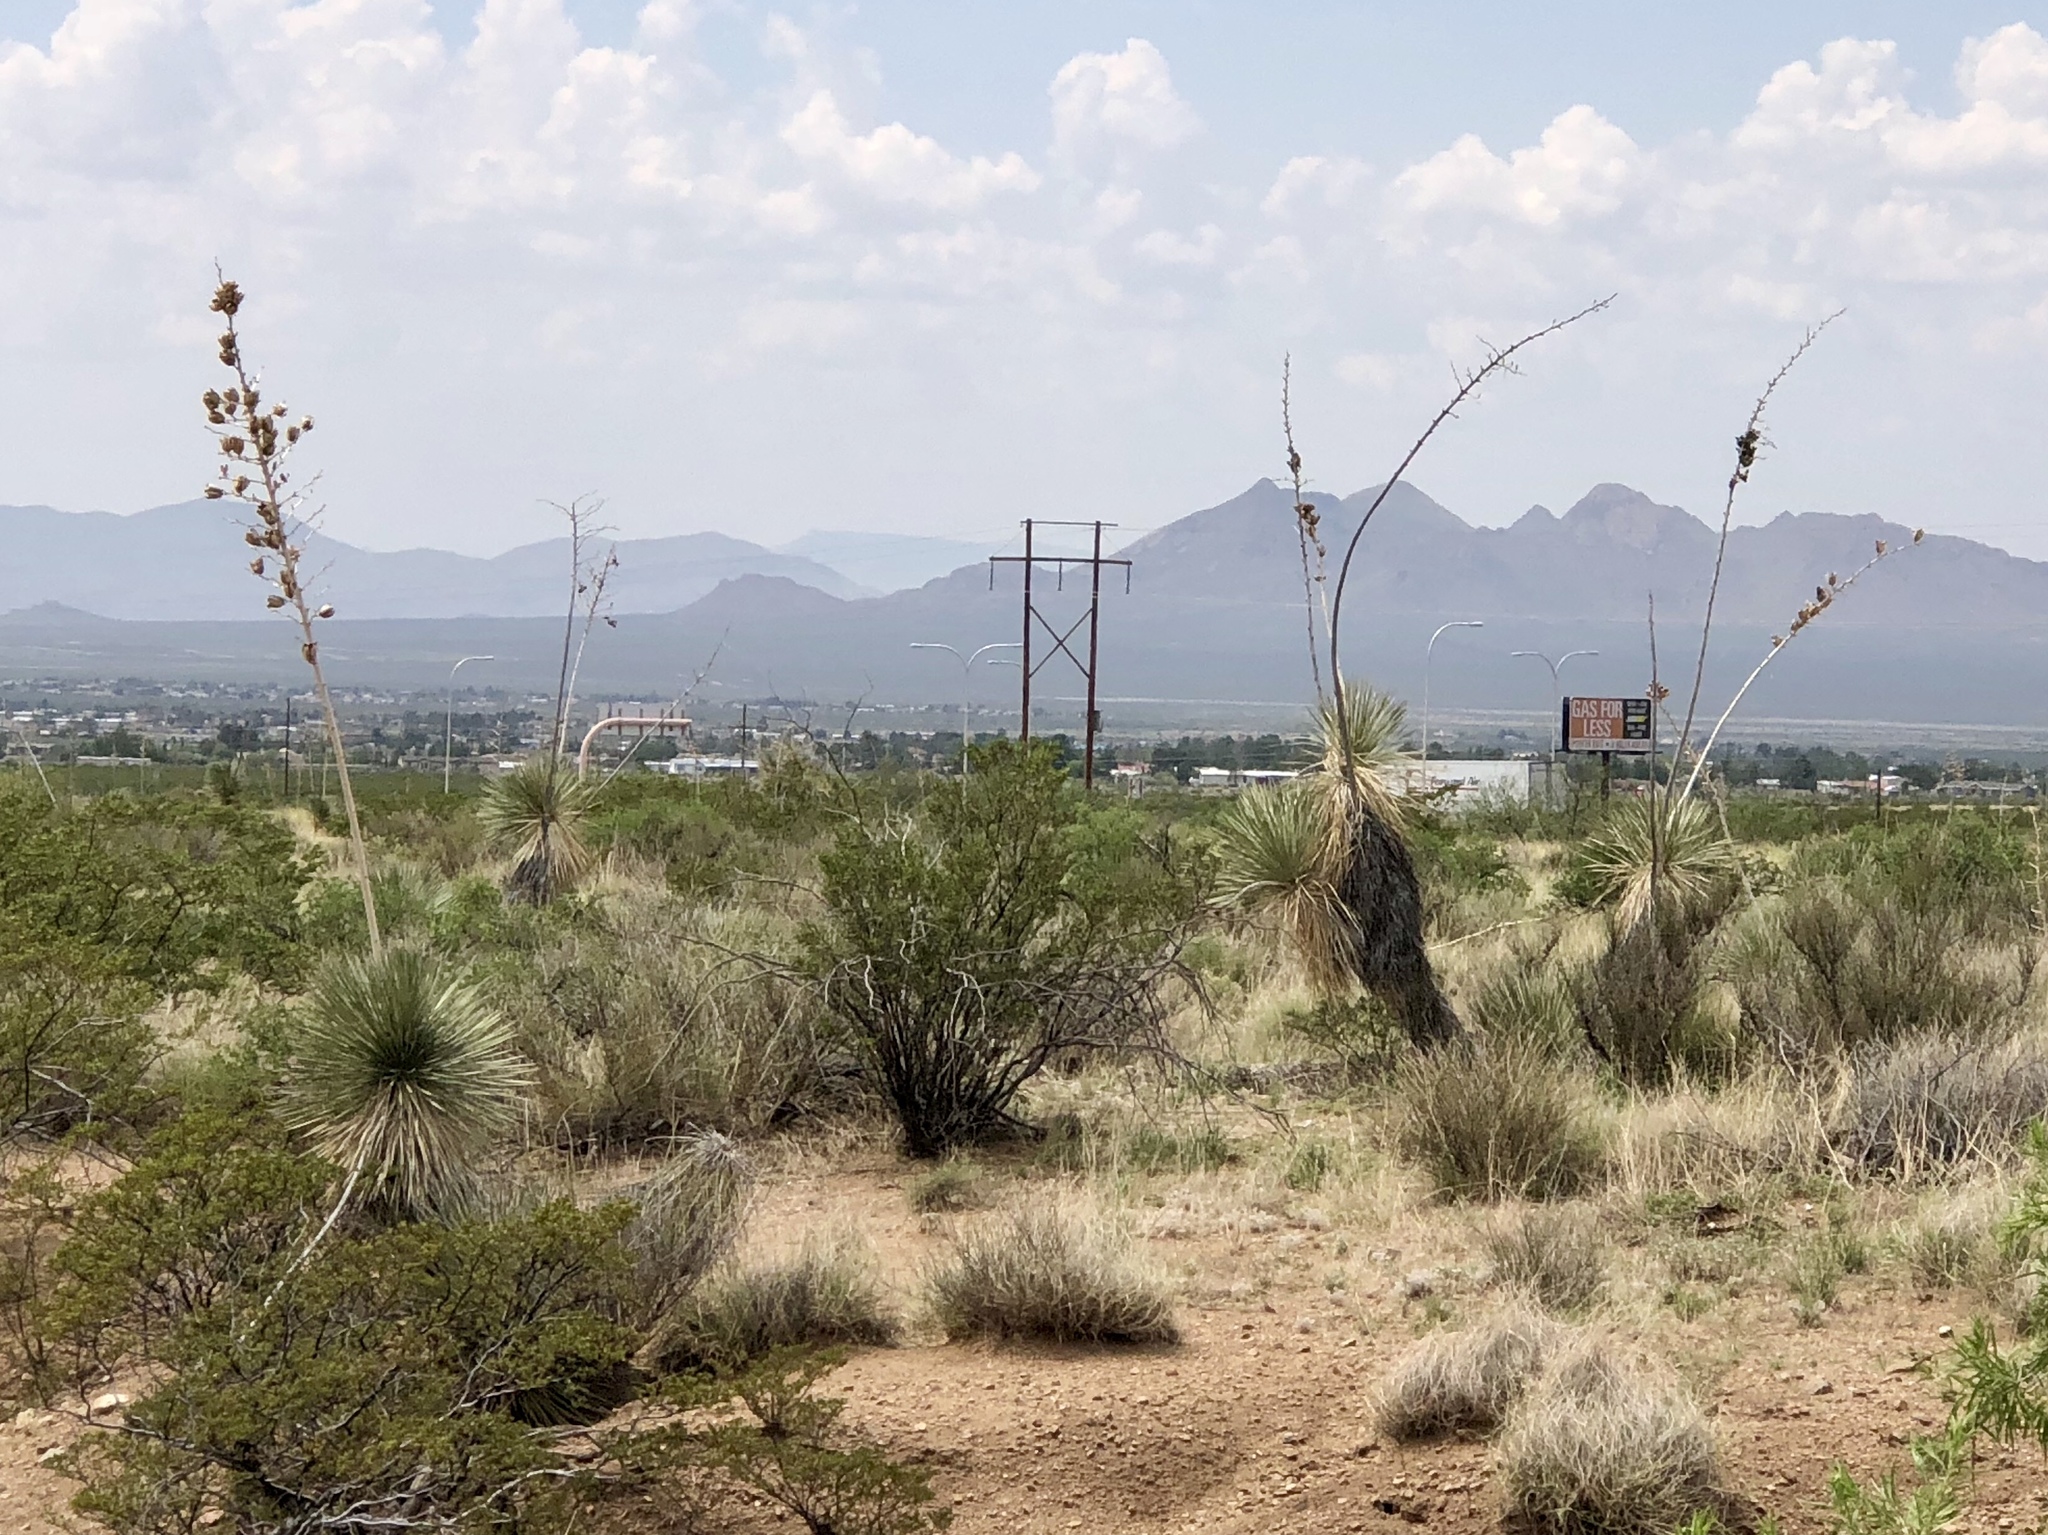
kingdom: Plantae
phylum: Tracheophyta
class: Liliopsida
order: Asparagales
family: Asparagaceae
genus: Yucca
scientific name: Yucca elata
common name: Palmella
